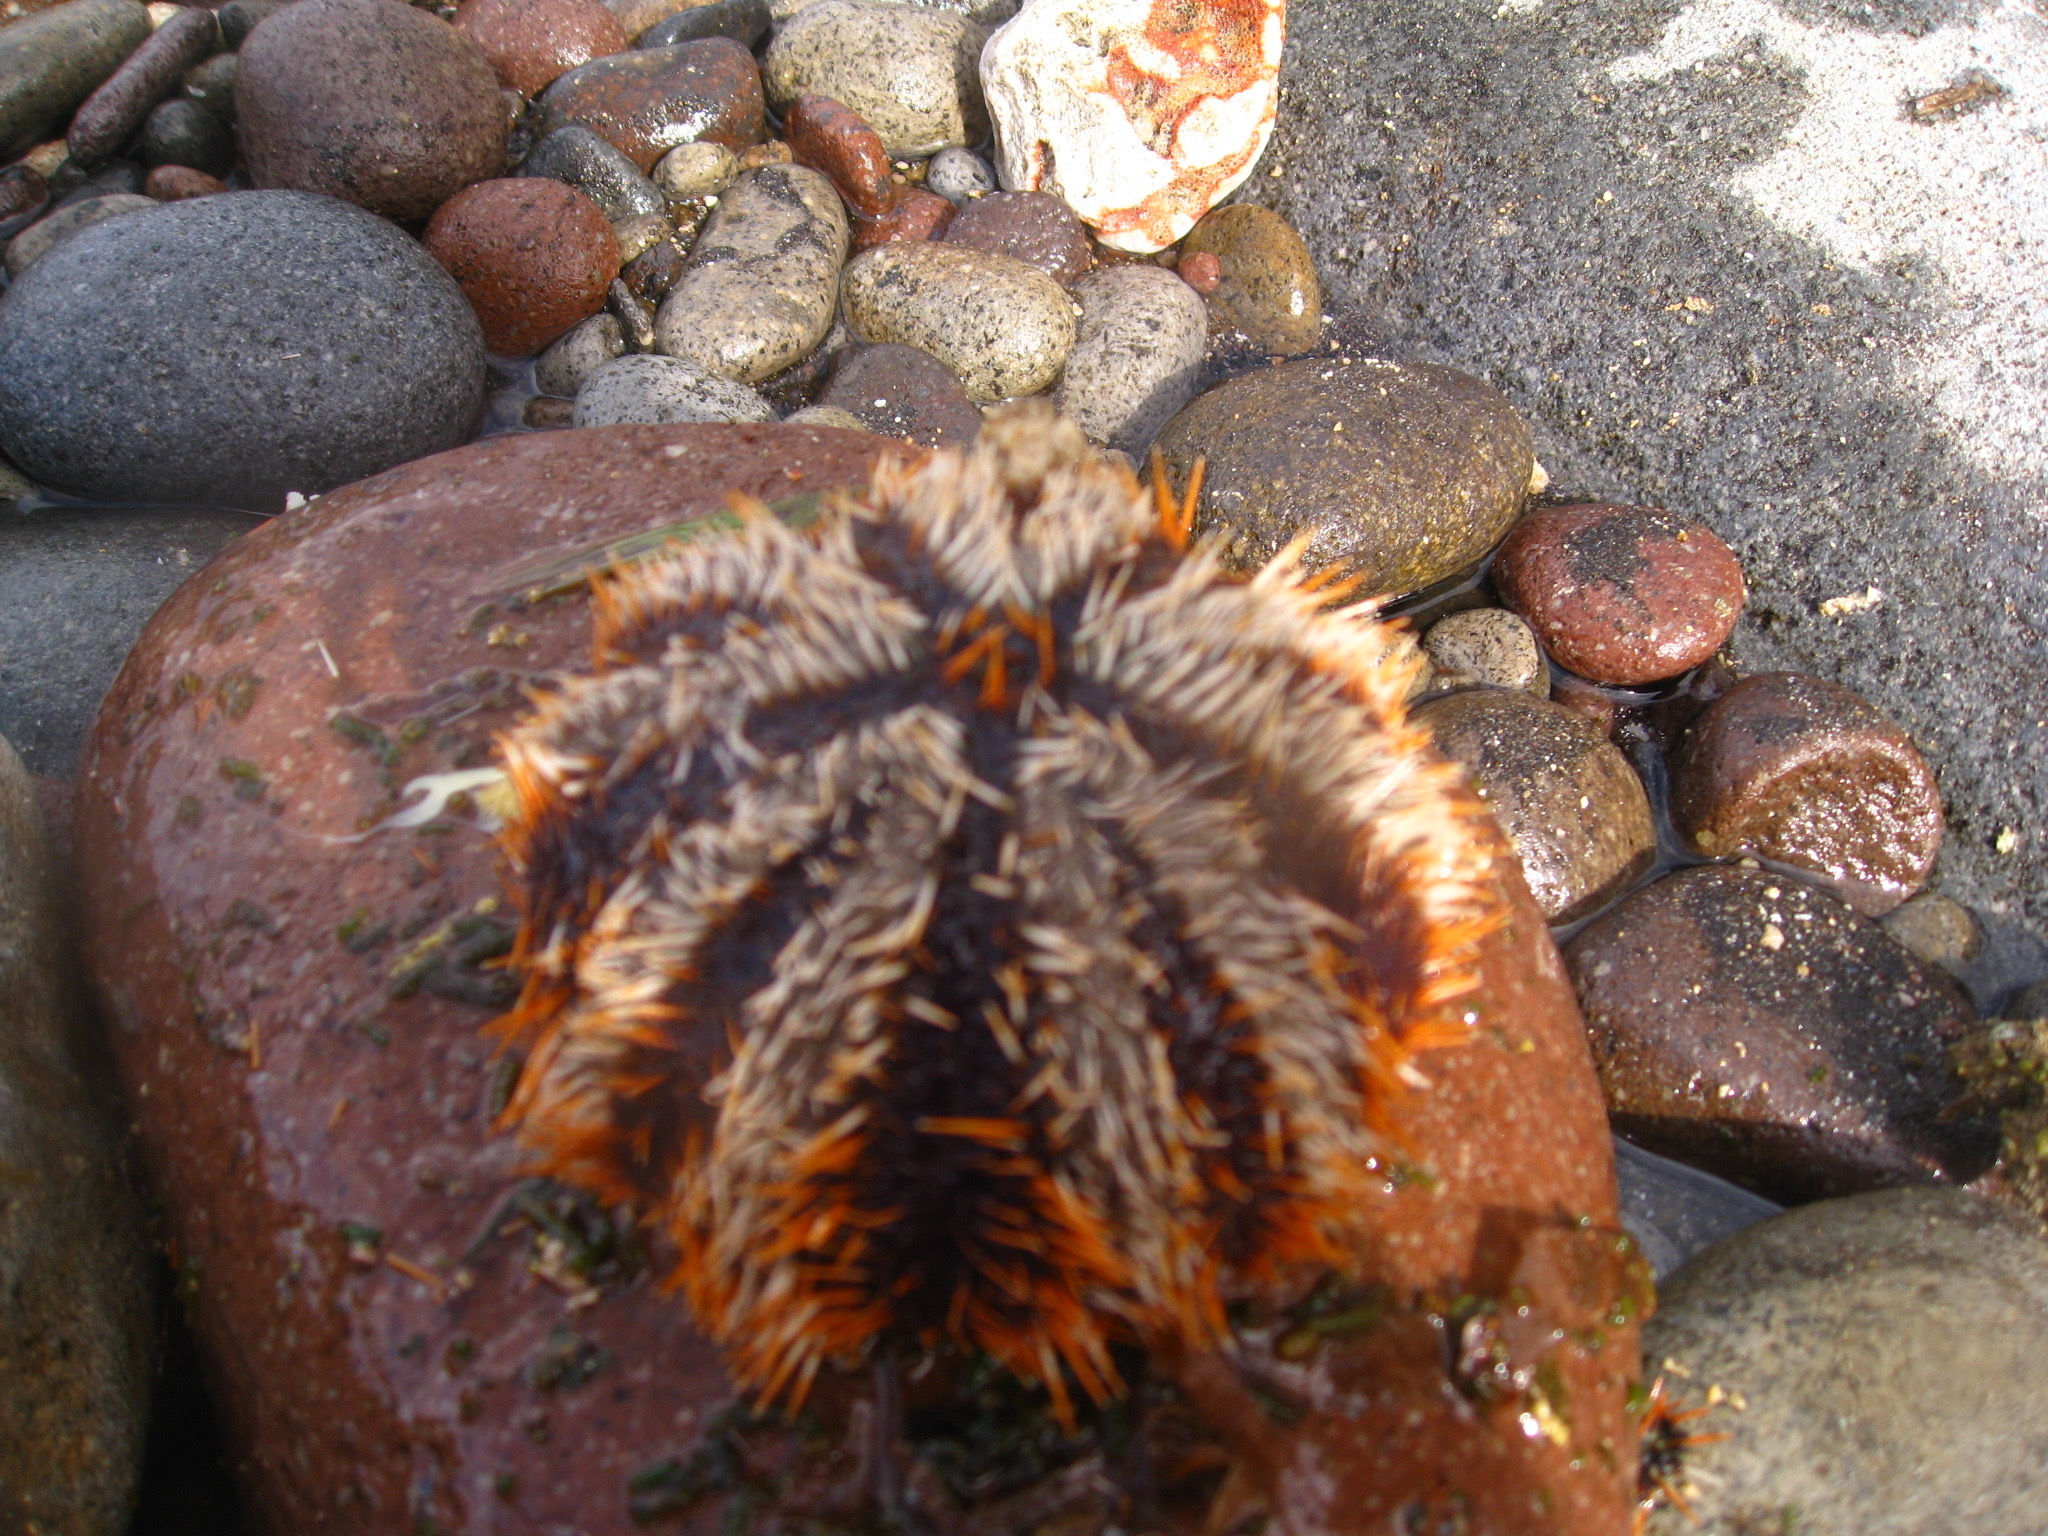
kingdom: Animalia
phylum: Echinodermata
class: Echinoidea
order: Camarodonta
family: Toxopneustidae
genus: Tripneustes
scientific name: Tripneustes gratilla
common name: Bischofsmützenseeigel
